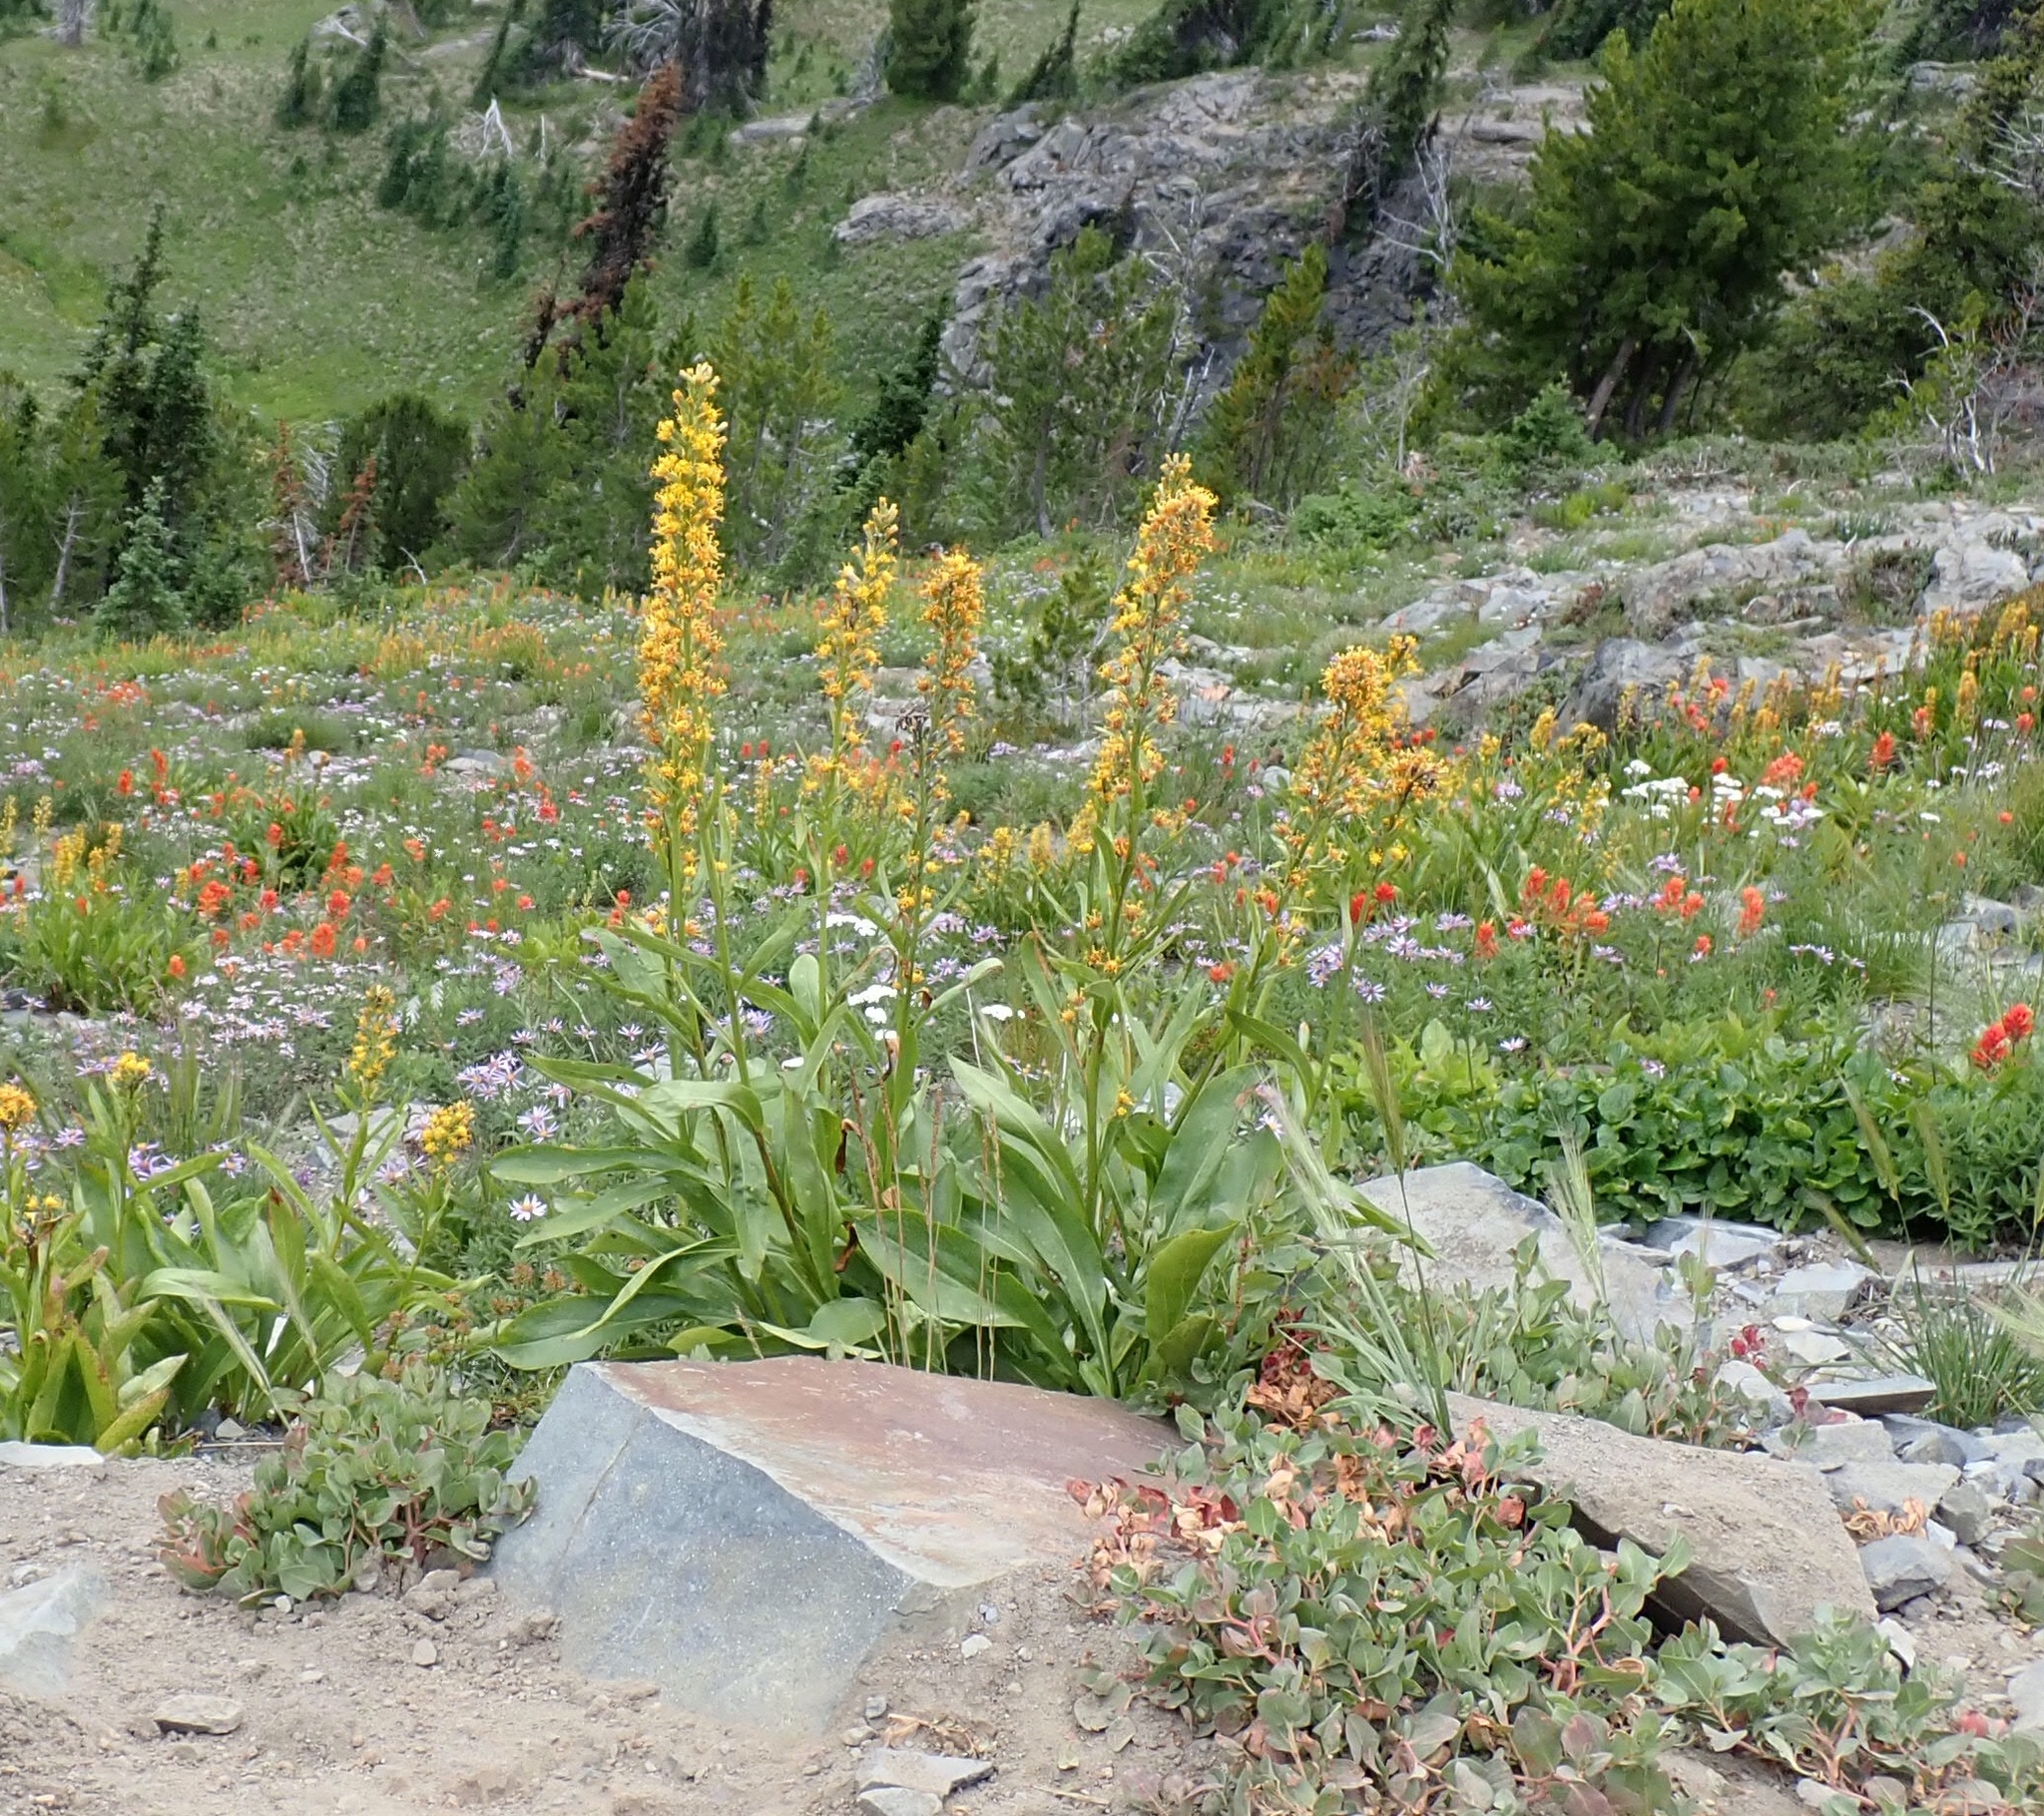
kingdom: Plantae
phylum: Tracheophyta
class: Magnoliopsida
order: Asterales
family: Asteraceae
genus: Rainiera
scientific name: Rainiera stricta
